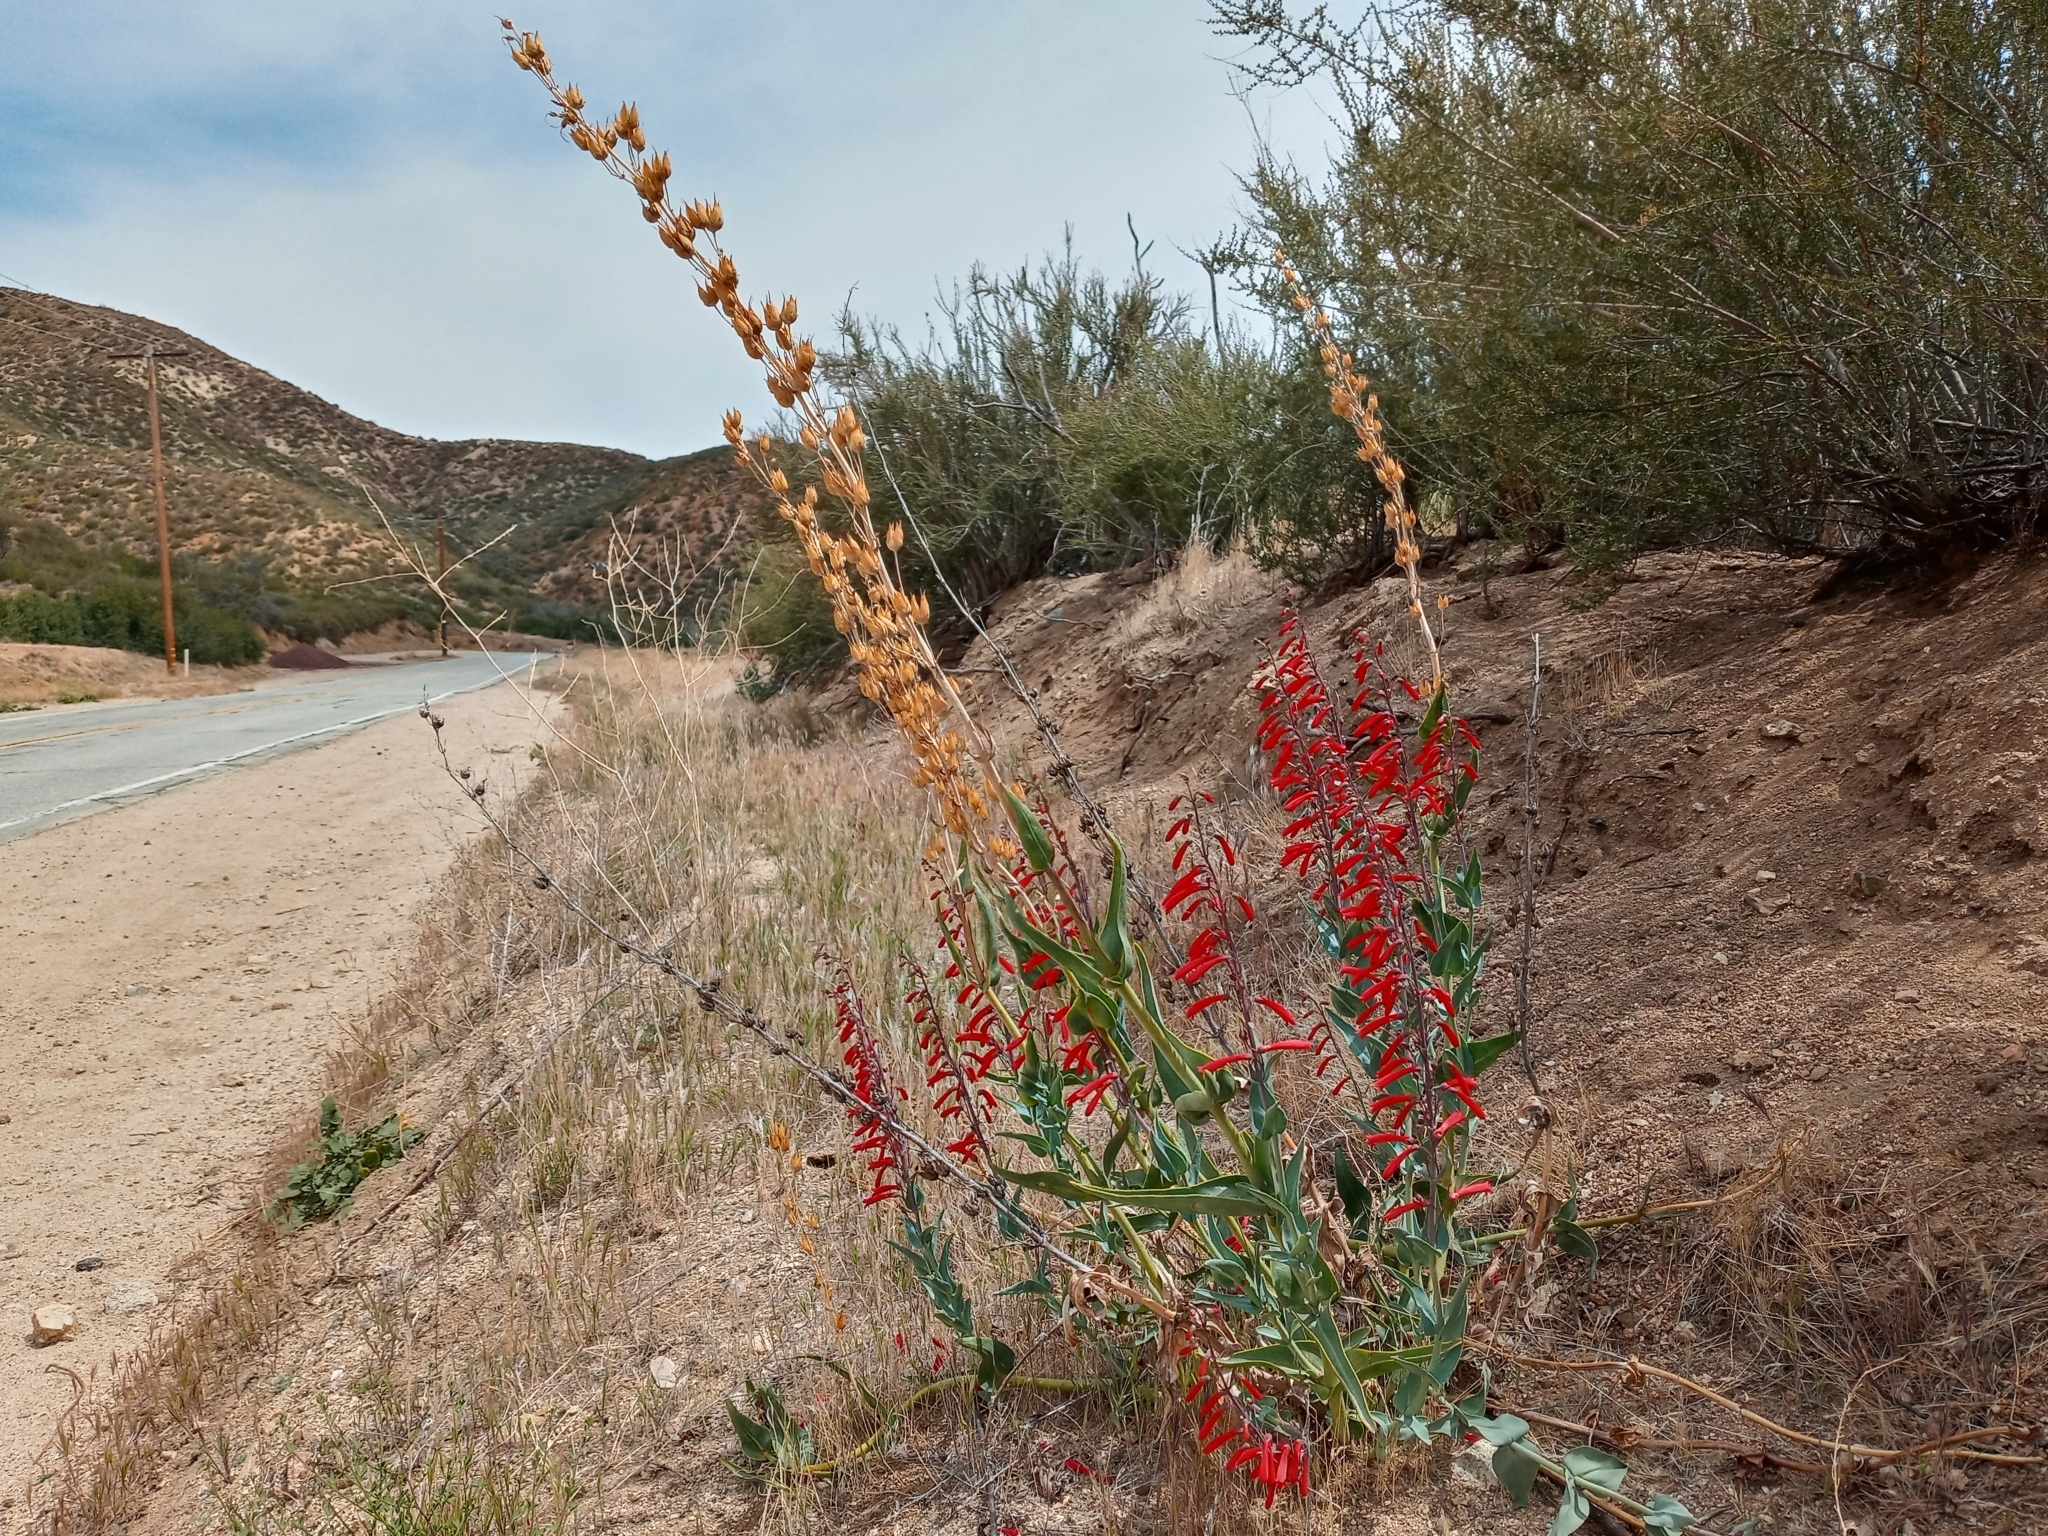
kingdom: Plantae
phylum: Tracheophyta
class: Magnoliopsida
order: Lamiales
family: Plantaginaceae
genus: Penstemon
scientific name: Penstemon centranthifolius
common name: Scarlet bugler
